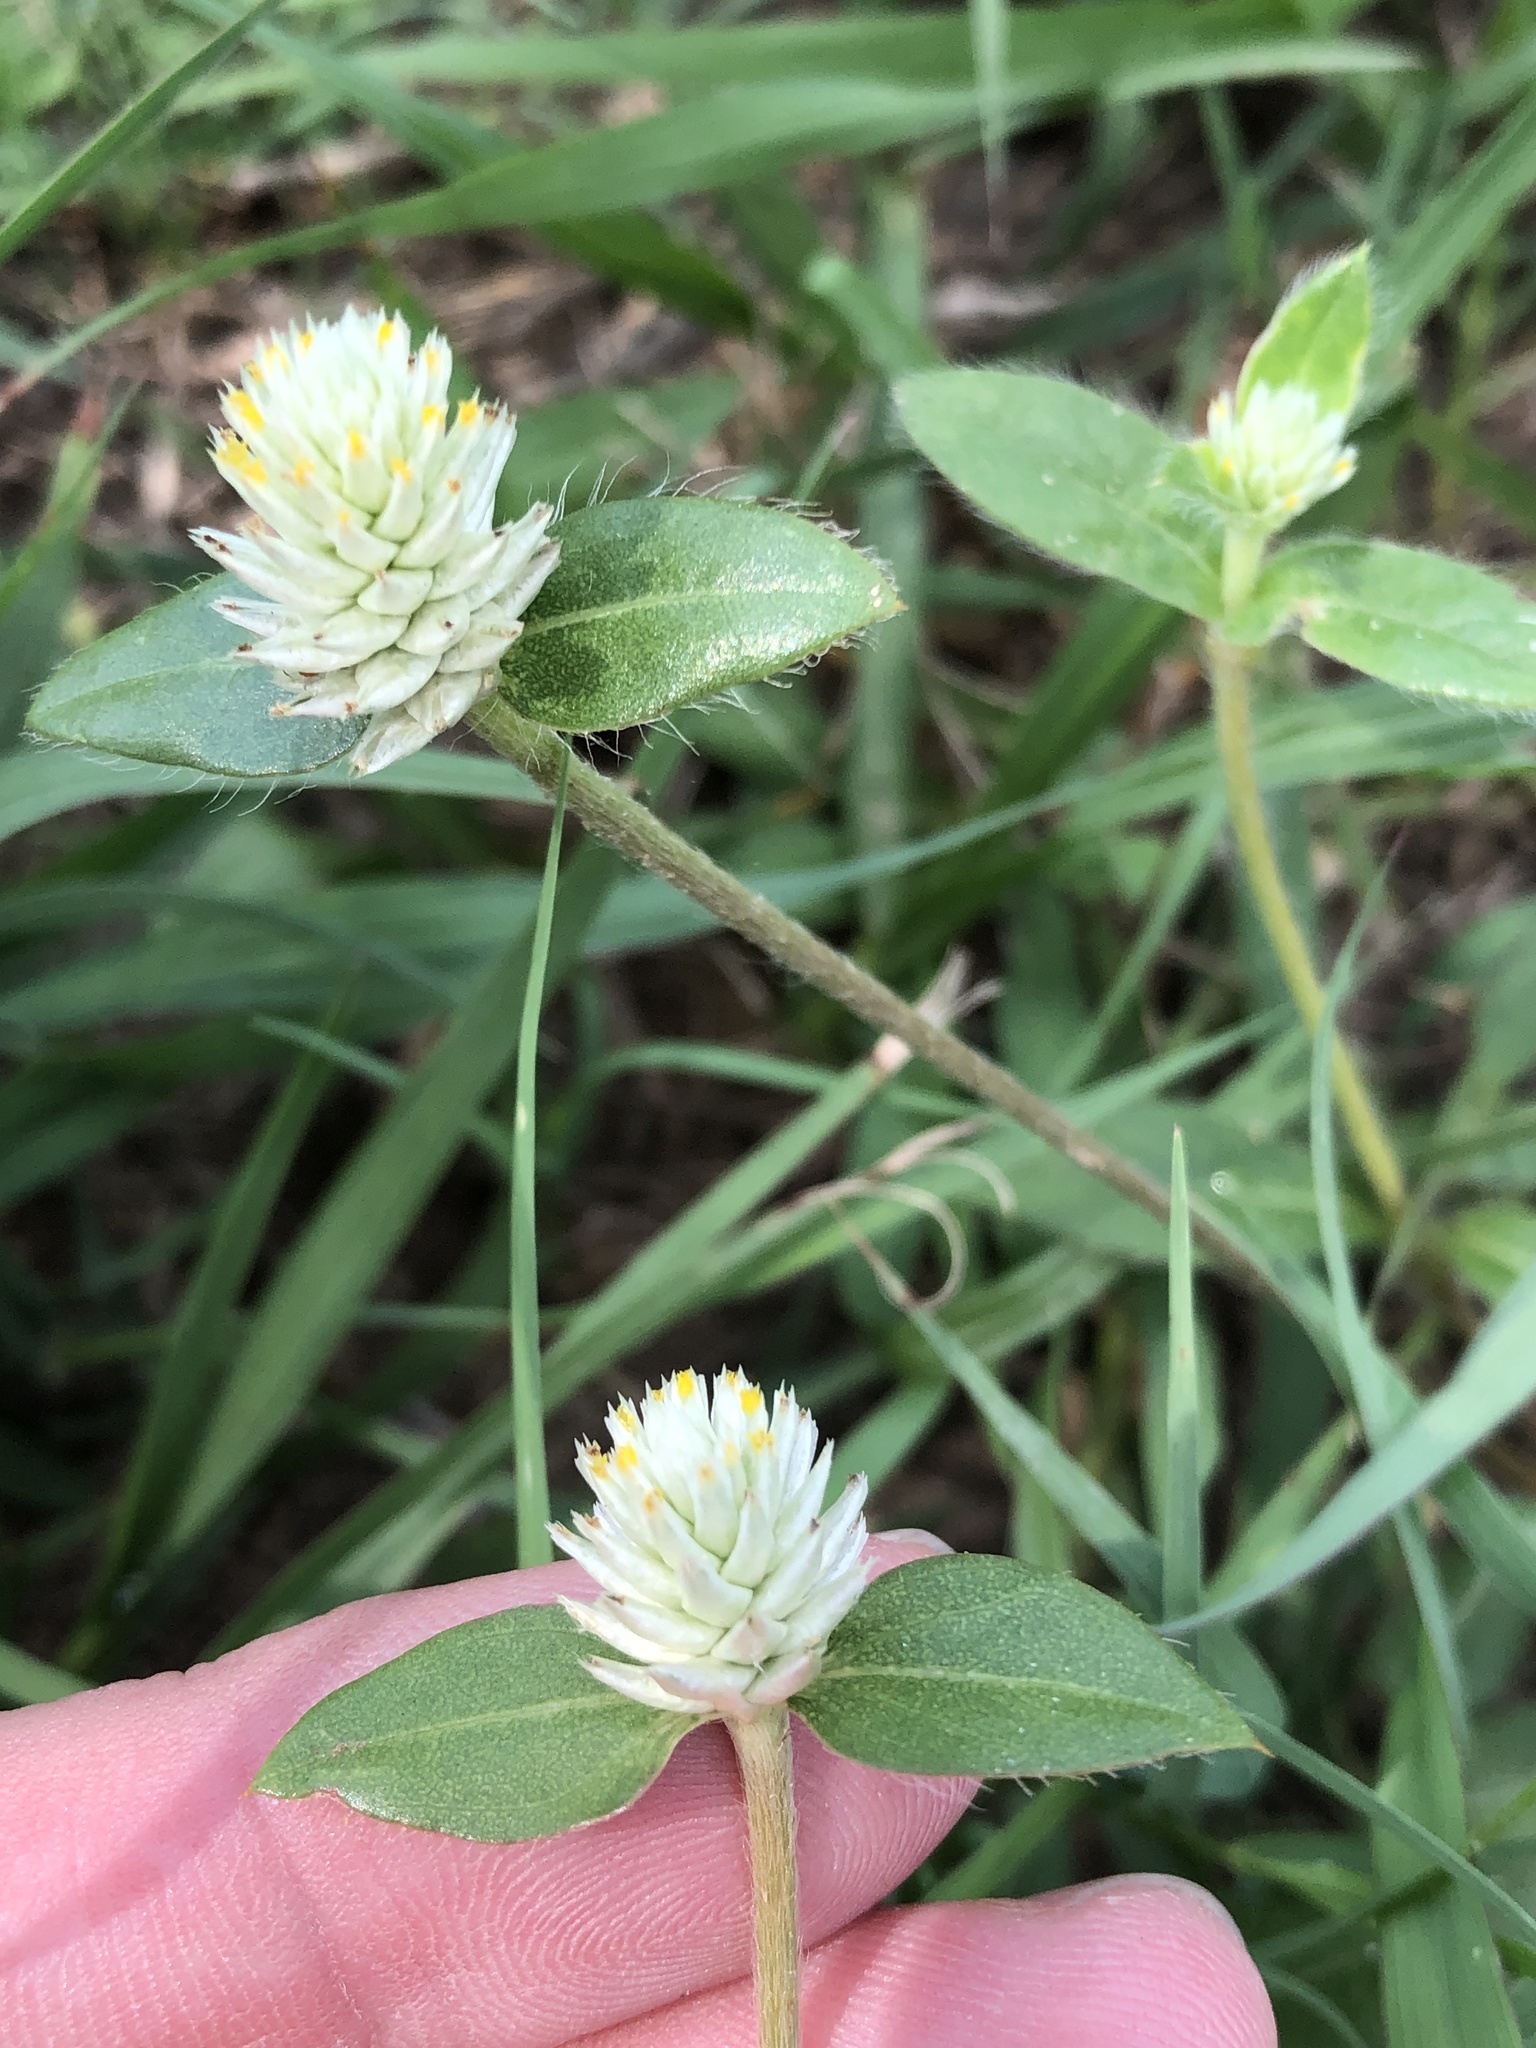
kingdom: Plantae
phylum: Tracheophyta
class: Magnoliopsida
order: Caryophyllales
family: Amaranthaceae
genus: Gomphrena
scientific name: Gomphrena serrata
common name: Arrasa con todo
